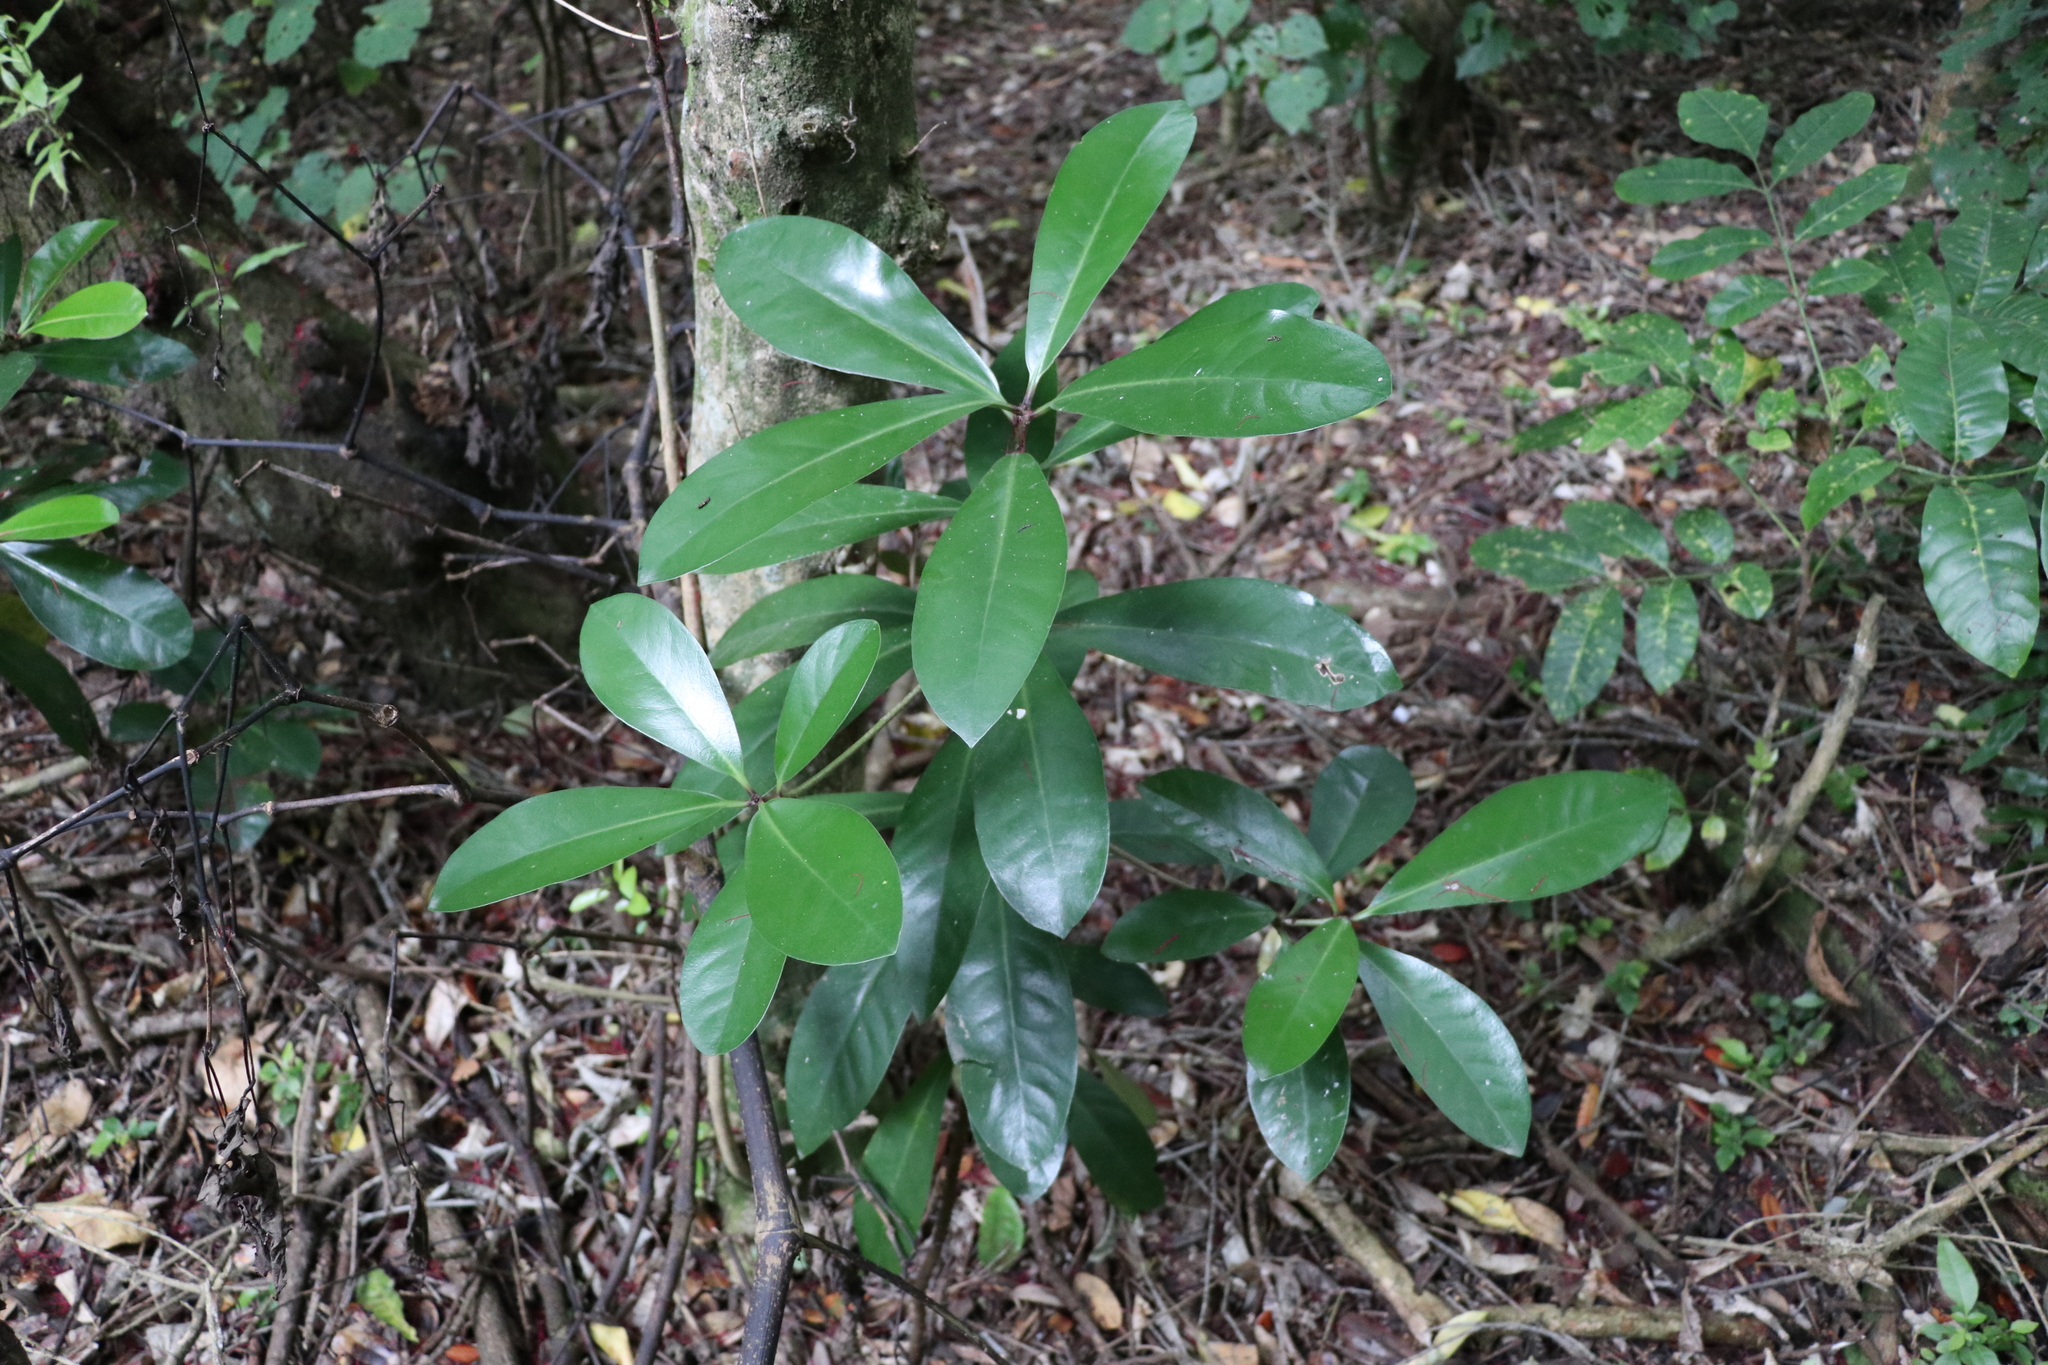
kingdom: Plantae
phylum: Tracheophyta
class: Magnoliopsida
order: Cucurbitales
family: Corynocarpaceae
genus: Corynocarpus
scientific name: Corynocarpus laevigatus
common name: New zealand laurel
